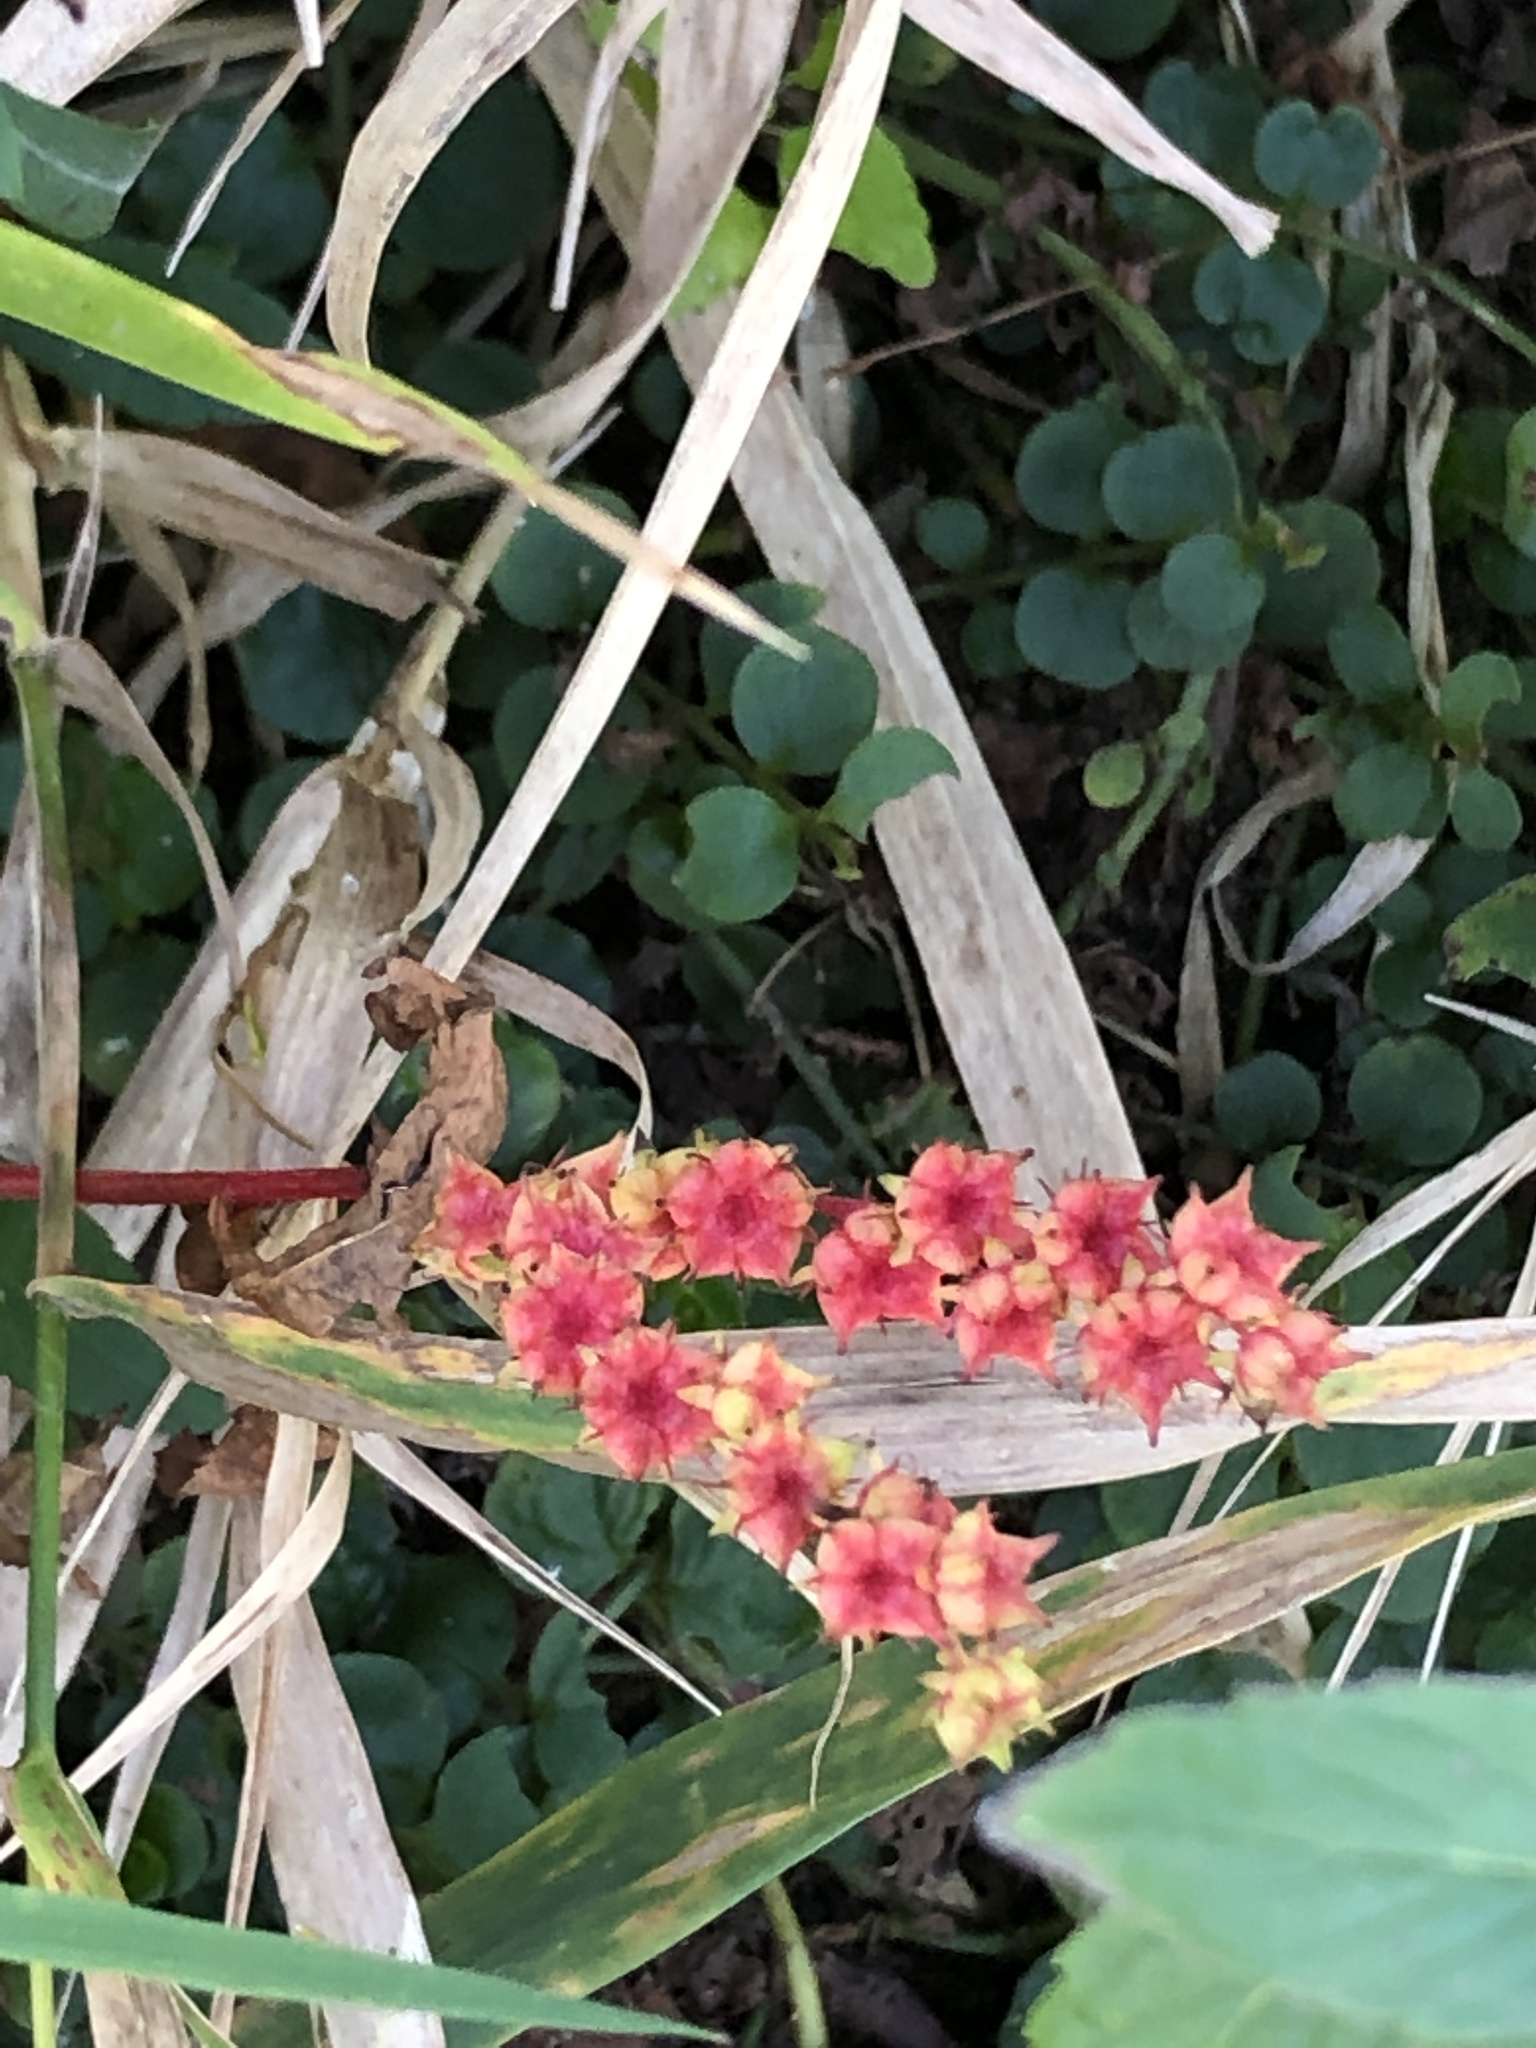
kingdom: Plantae
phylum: Tracheophyta
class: Magnoliopsida
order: Saxifragales
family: Penthoraceae
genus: Penthorum
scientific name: Penthorum sedoides
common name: Ditch stonecrop
